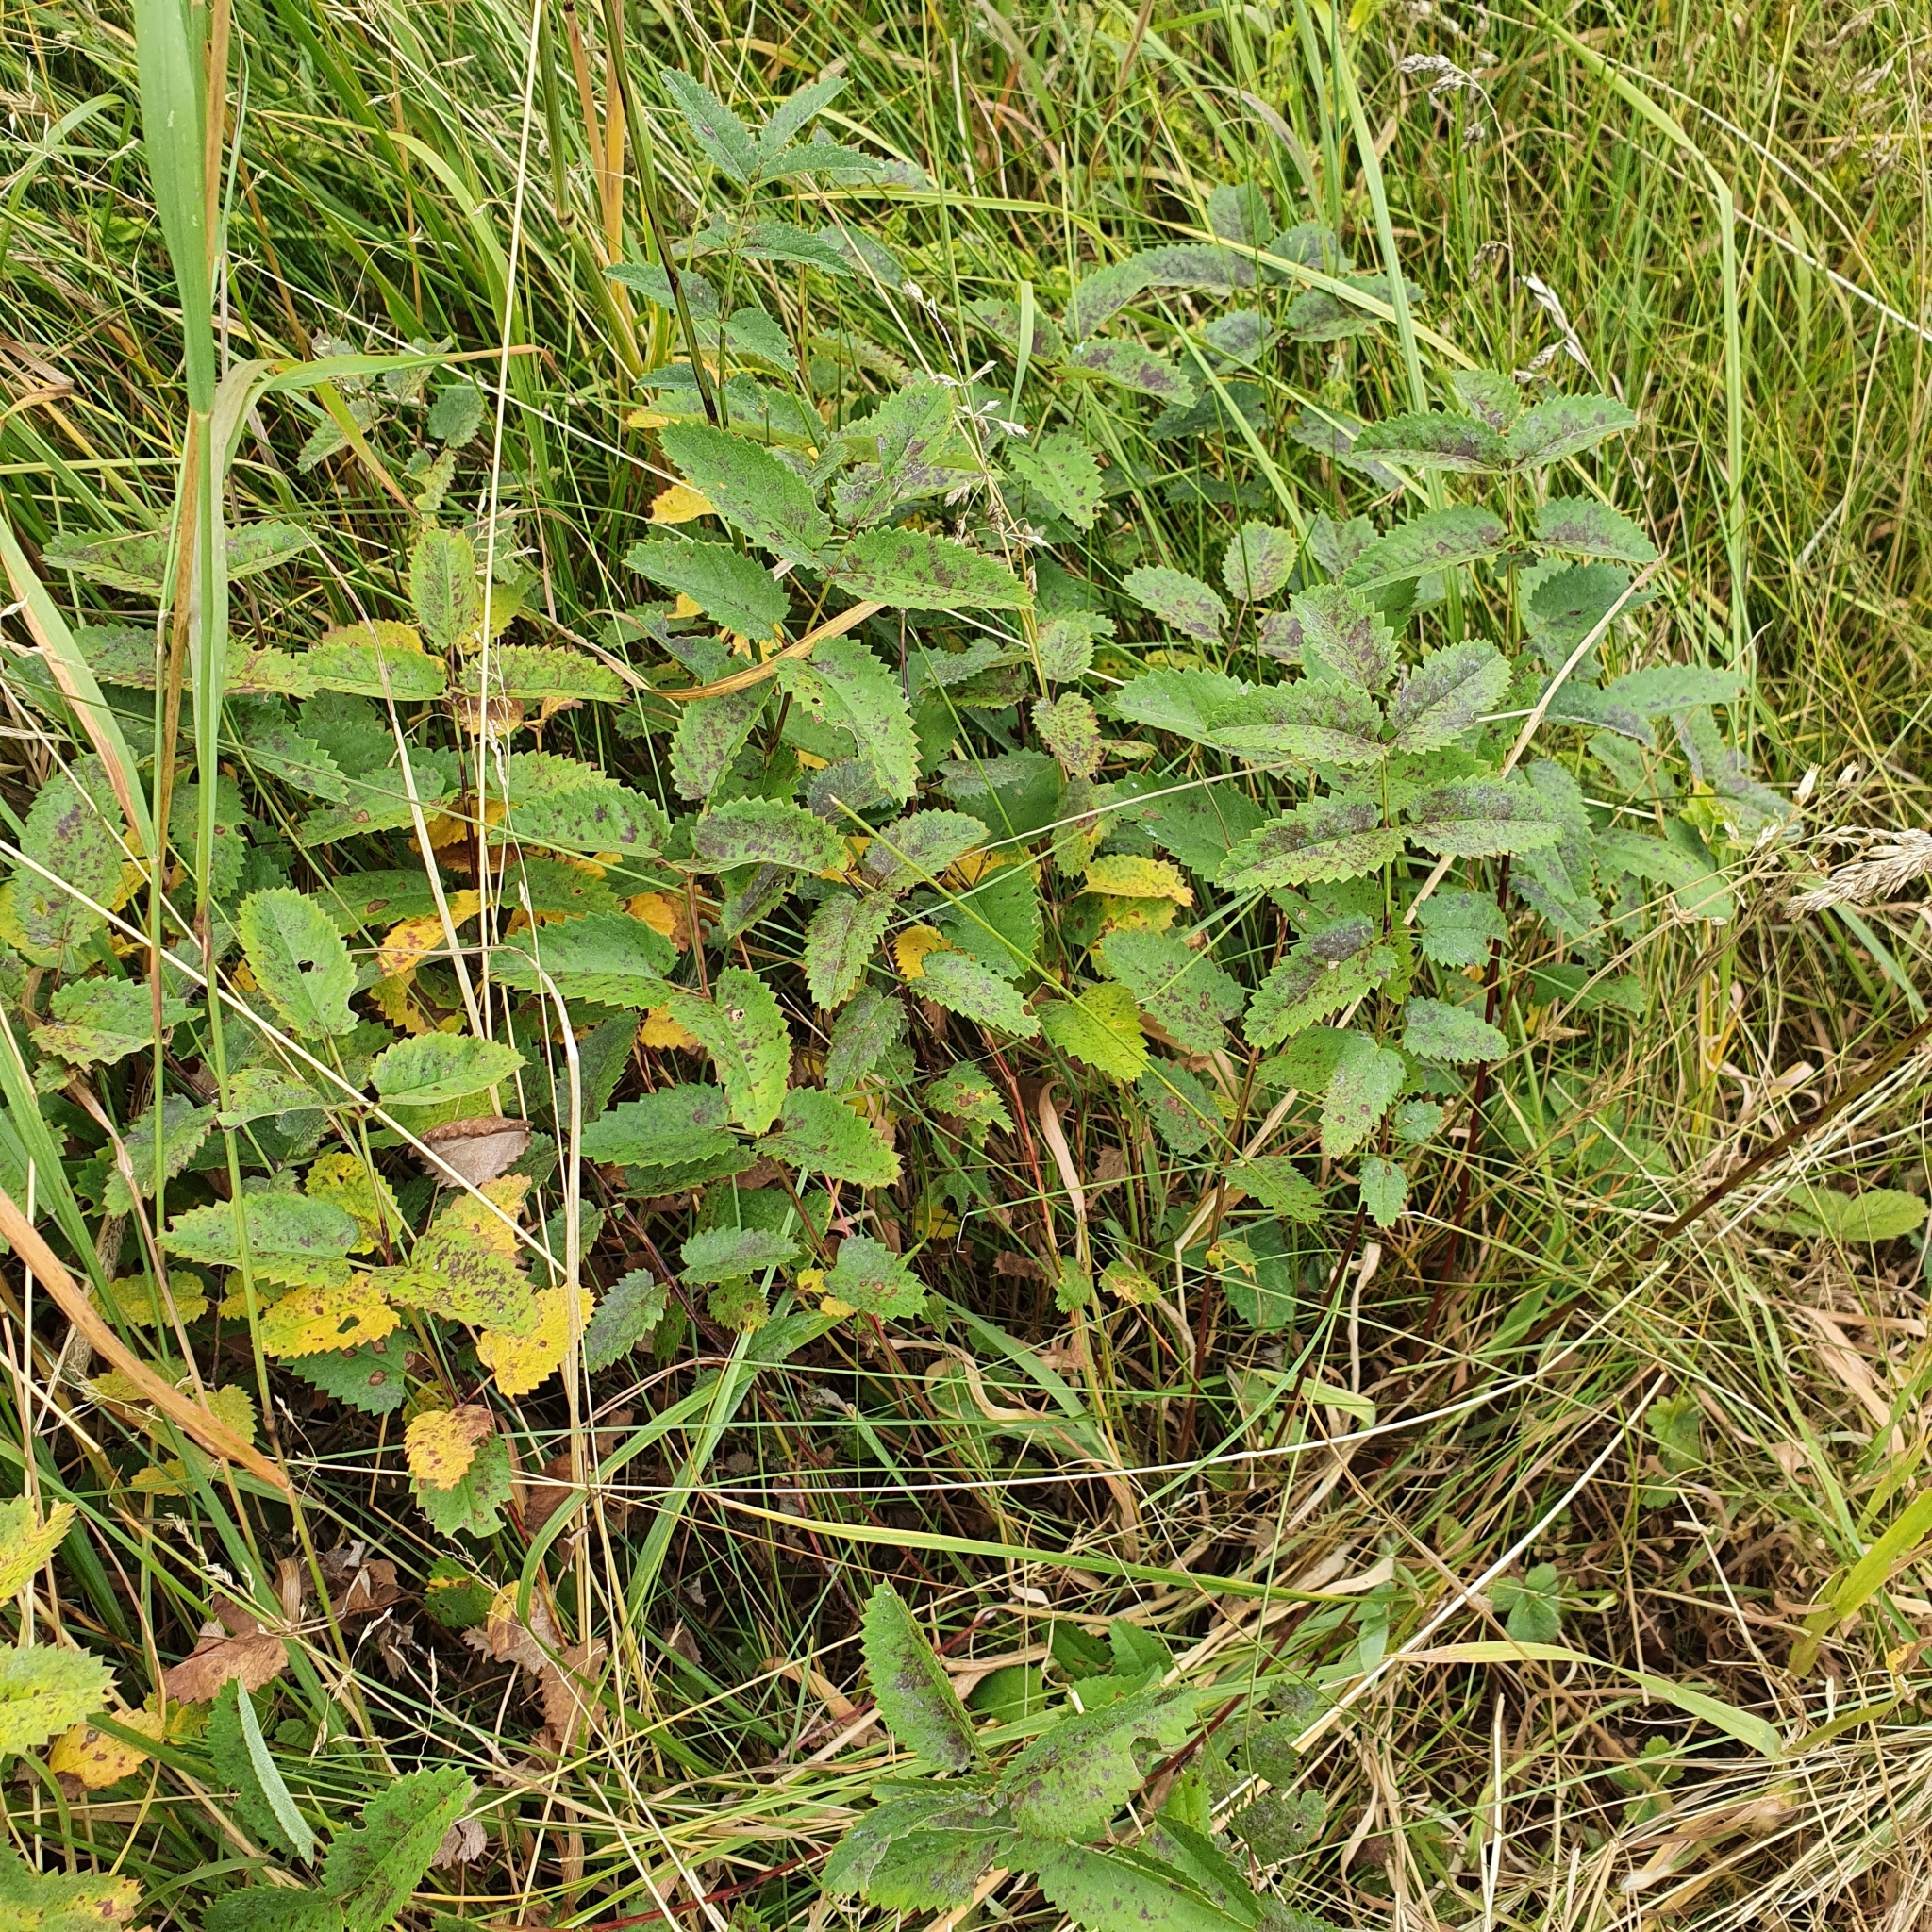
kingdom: Plantae
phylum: Tracheophyta
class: Magnoliopsida
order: Rosales
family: Rosaceae
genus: Sanguisorba
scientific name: Sanguisorba officinalis
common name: Great burnet
